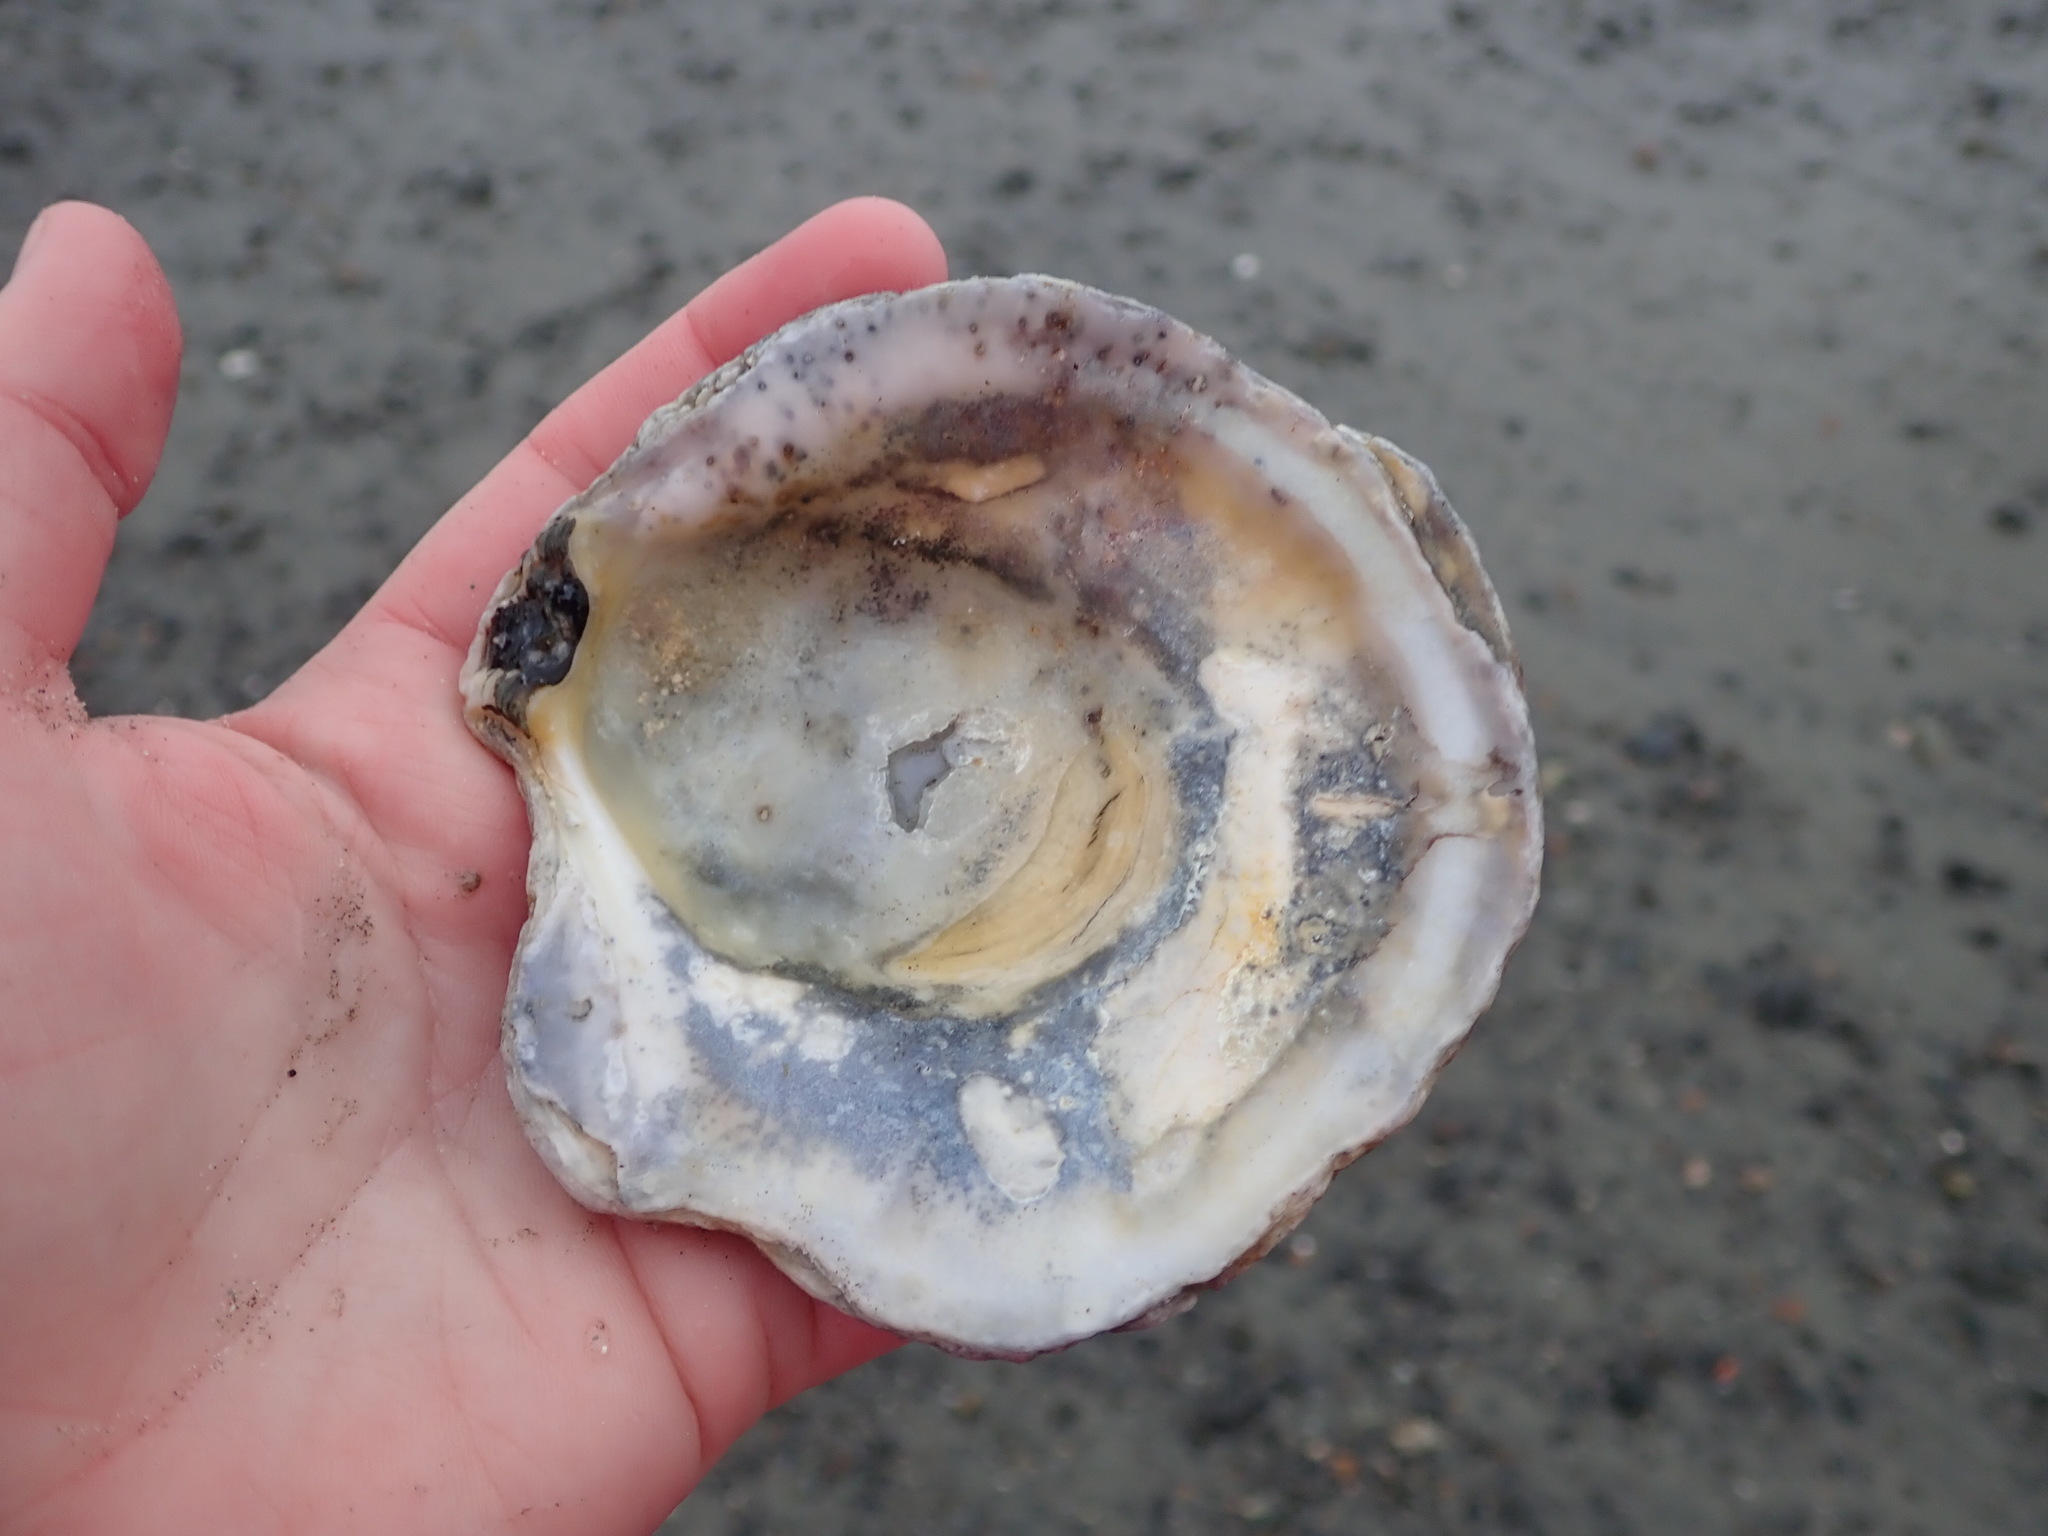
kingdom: Animalia
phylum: Mollusca
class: Bivalvia
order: Ostreida
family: Ostreidae
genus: Ostrea
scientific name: Ostrea edulis
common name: Flat oyster
